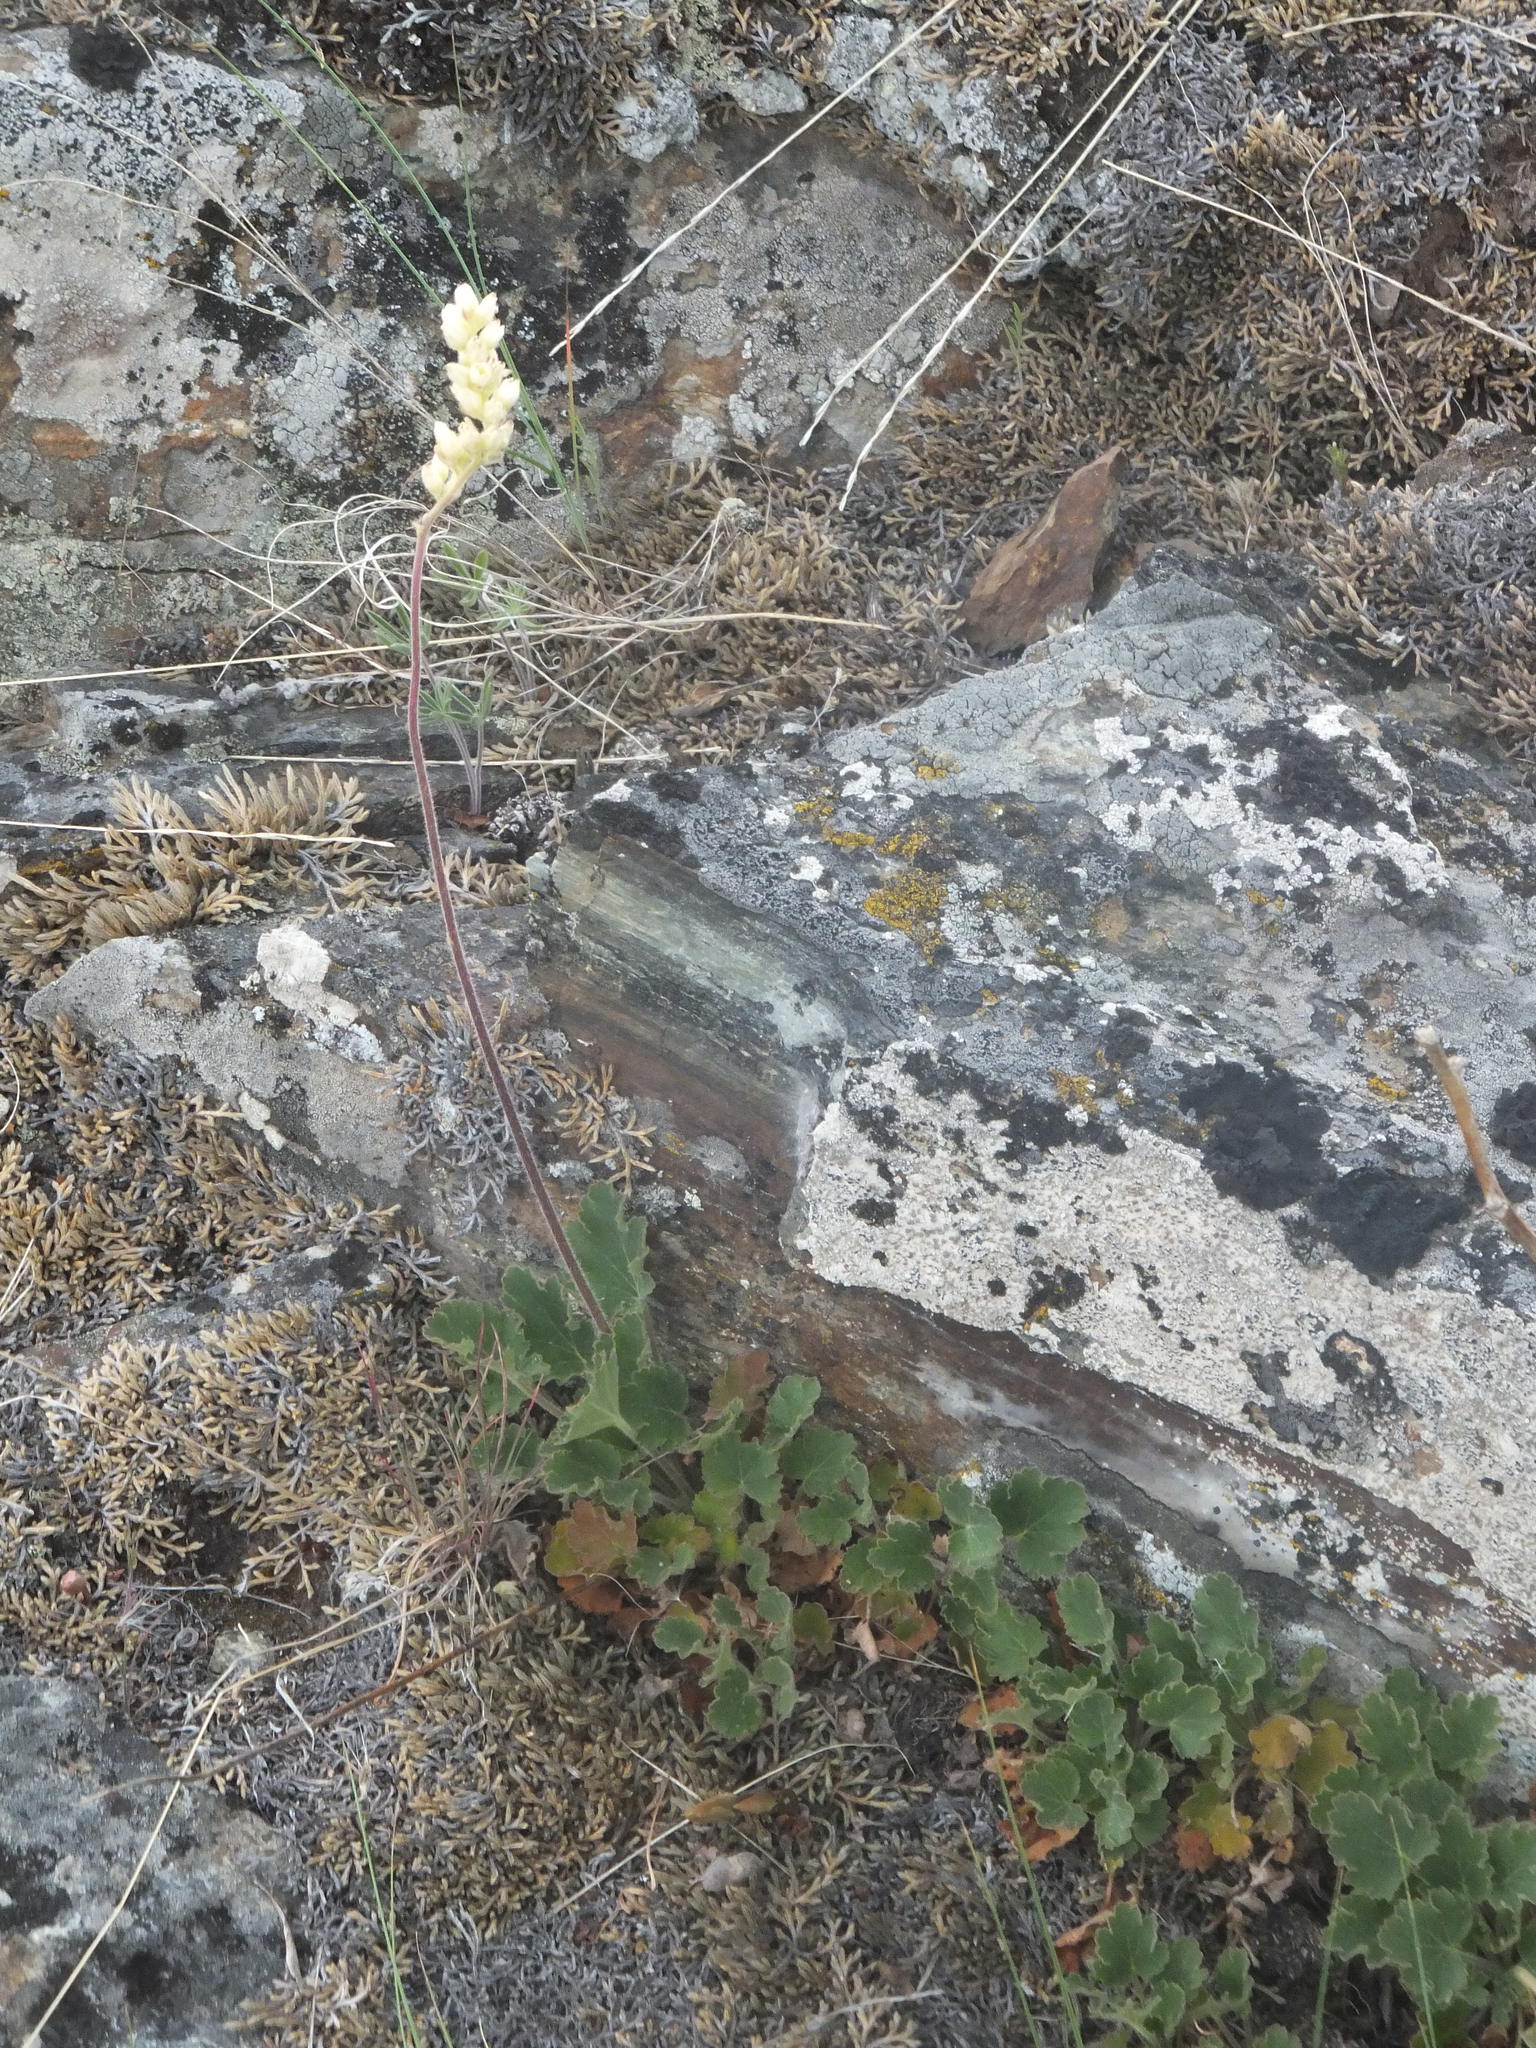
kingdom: Plantae
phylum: Tracheophyta
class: Magnoliopsida
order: Saxifragales
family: Saxifragaceae
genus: Heuchera
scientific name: Heuchera cylindrica
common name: Mat alumroot
